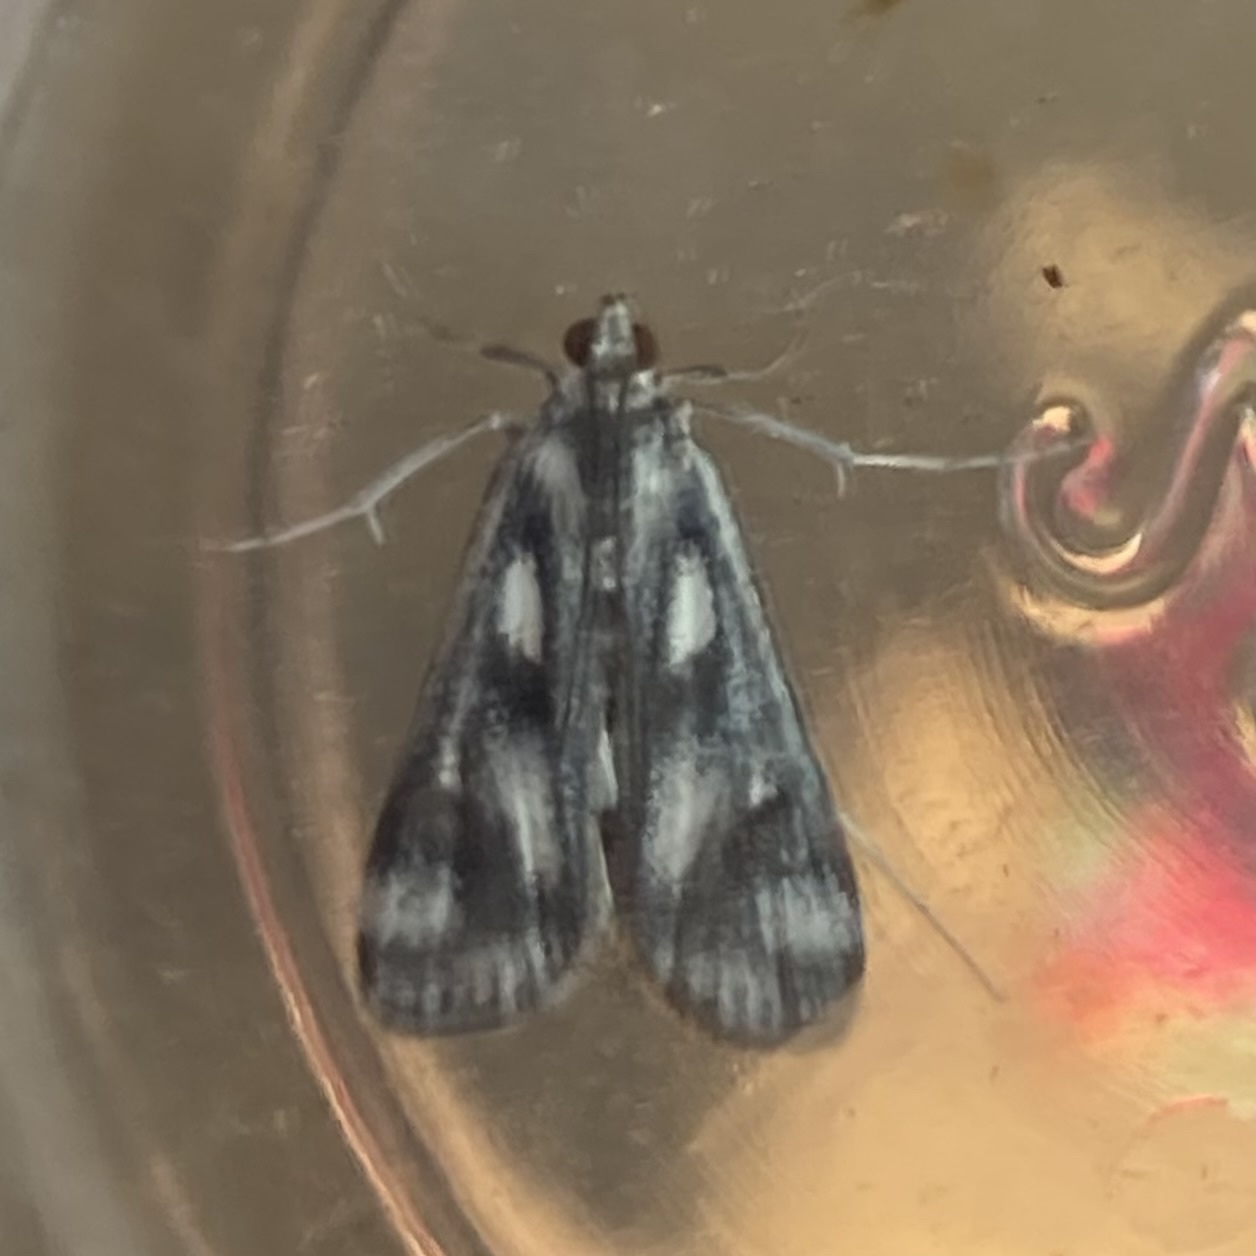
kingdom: Animalia
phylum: Arthropoda
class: Insecta
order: Lepidoptera
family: Crambidae
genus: Parapoynx
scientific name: Parapoynx maculalis
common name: Polymorphic pondweed moth
